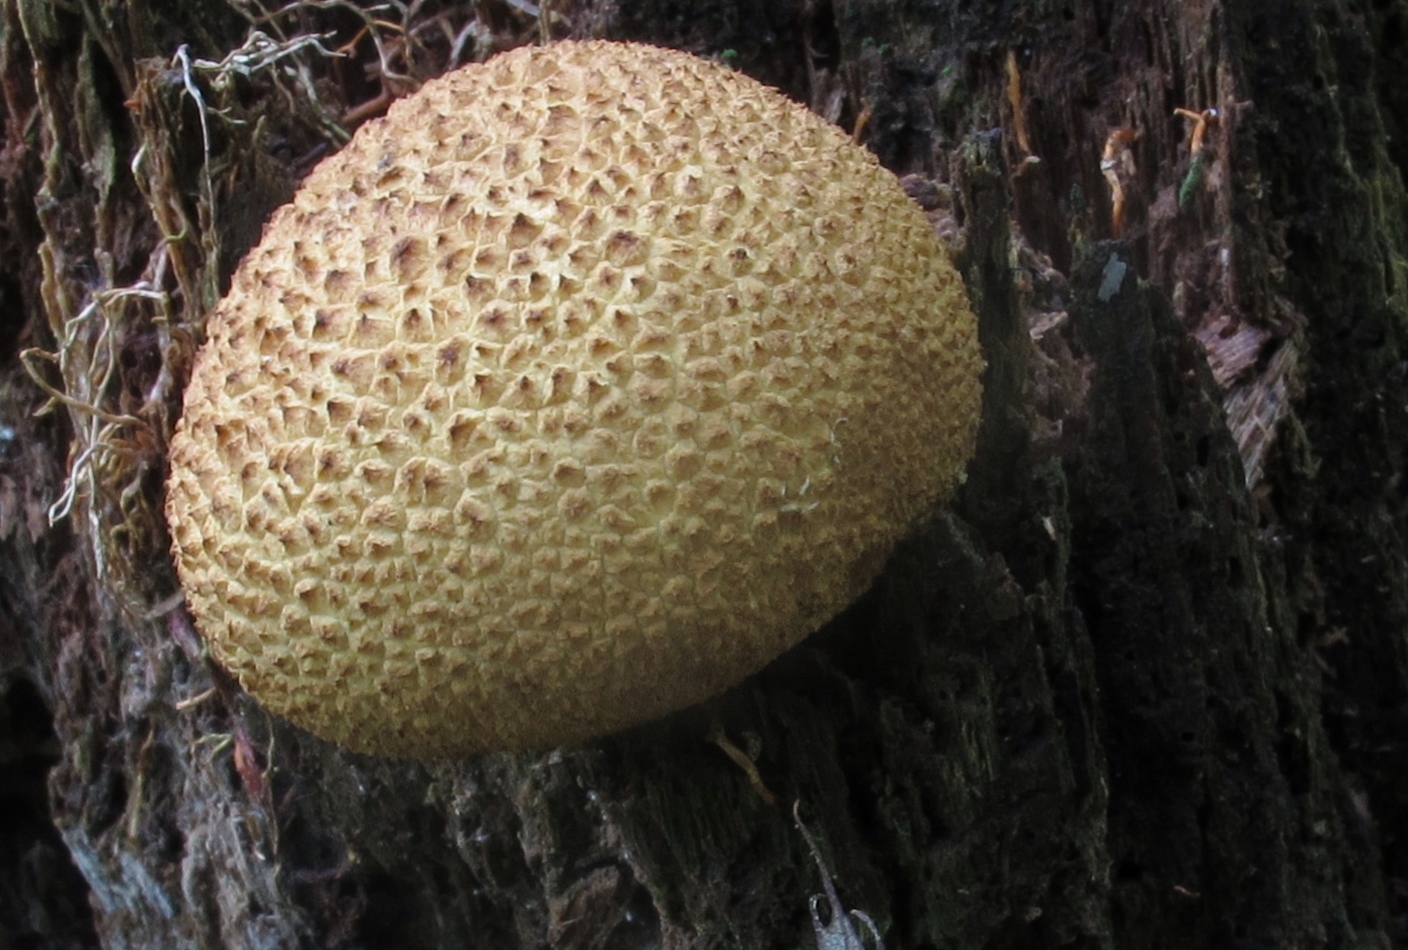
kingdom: Fungi
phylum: Basidiomycota
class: Agaricomycetes
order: Boletales
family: Sclerodermataceae
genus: Scleroderma
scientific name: Scleroderma citrinum
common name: Common earthball
